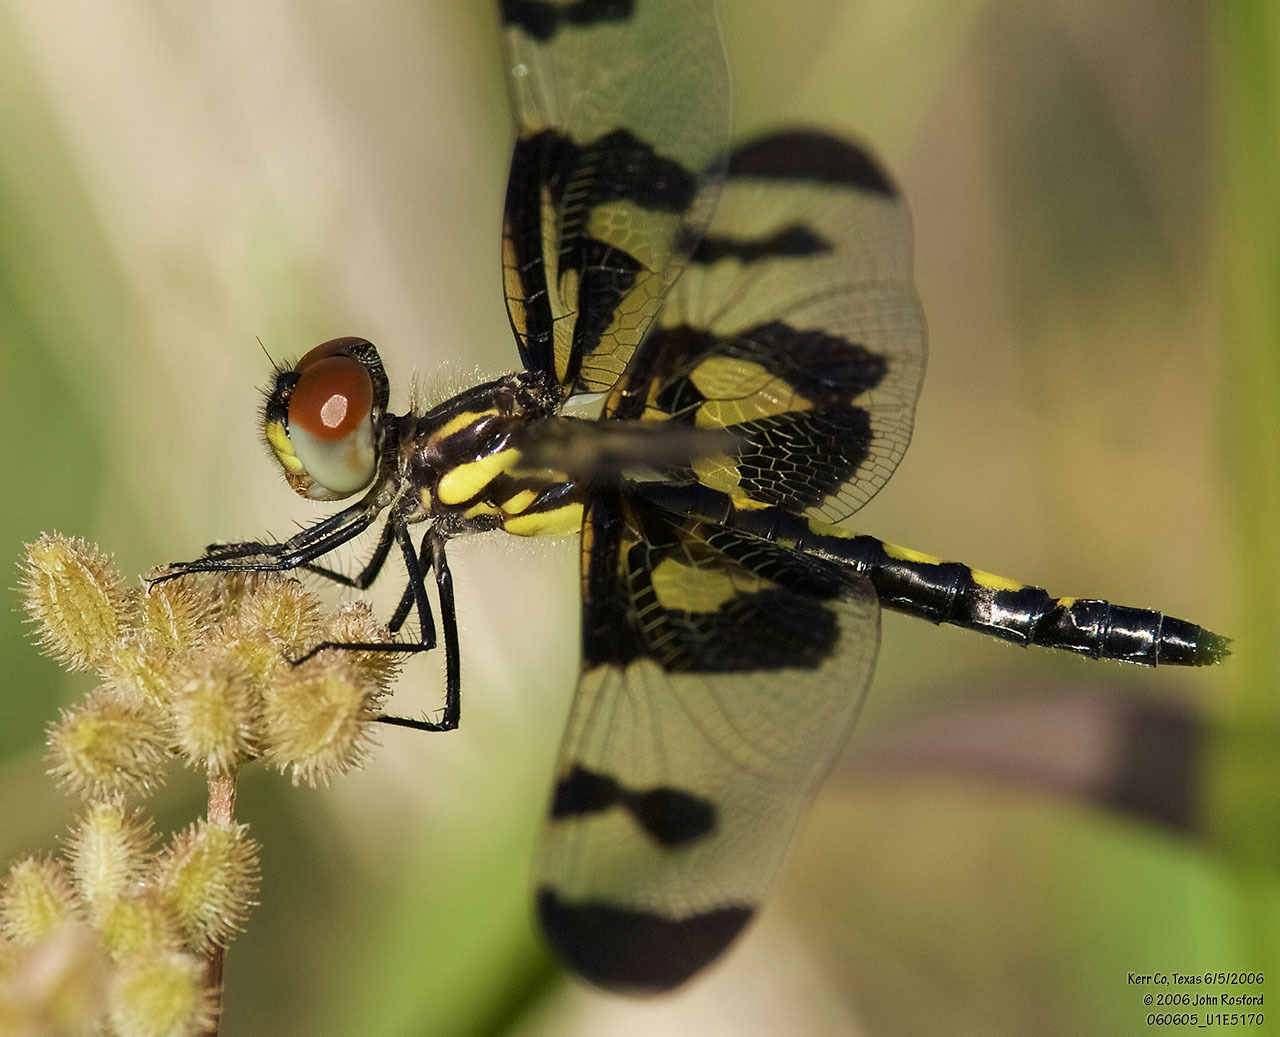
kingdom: Animalia
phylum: Arthropoda
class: Insecta
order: Odonata
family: Libellulidae
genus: Celithemis
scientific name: Celithemis fasciata
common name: Banded pennant
